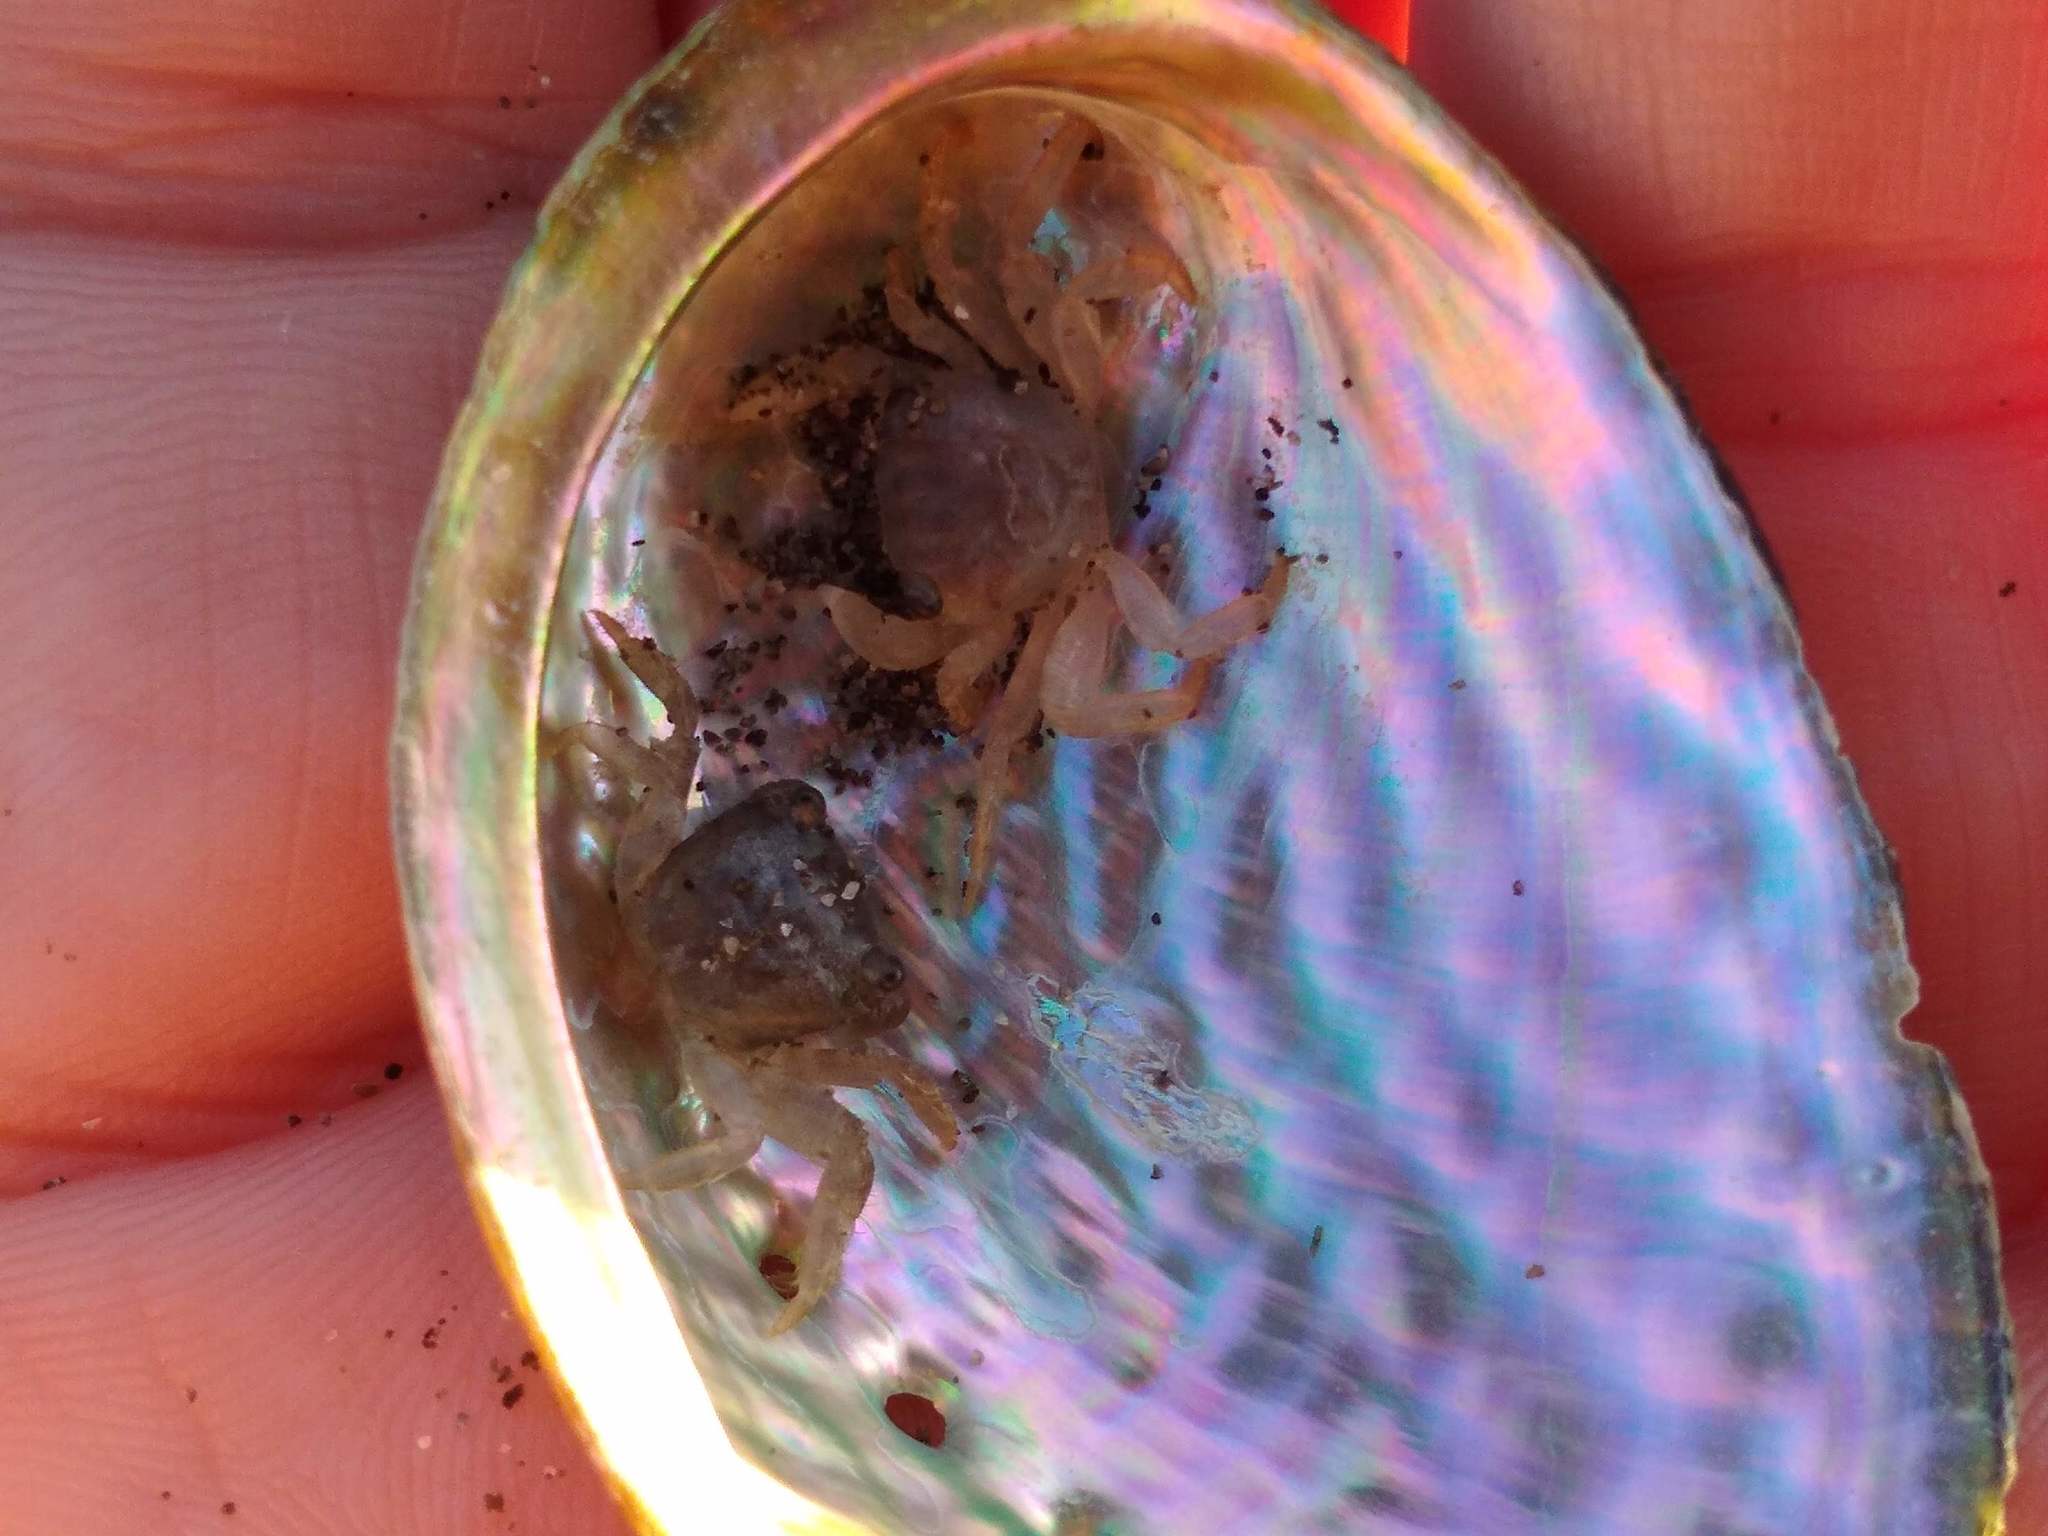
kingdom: Animalia
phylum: Arthropoda
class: Malacostraca
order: Decapoda
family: Grapsidae
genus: Planes
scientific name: Planes minutus
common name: Gulf weed crab
